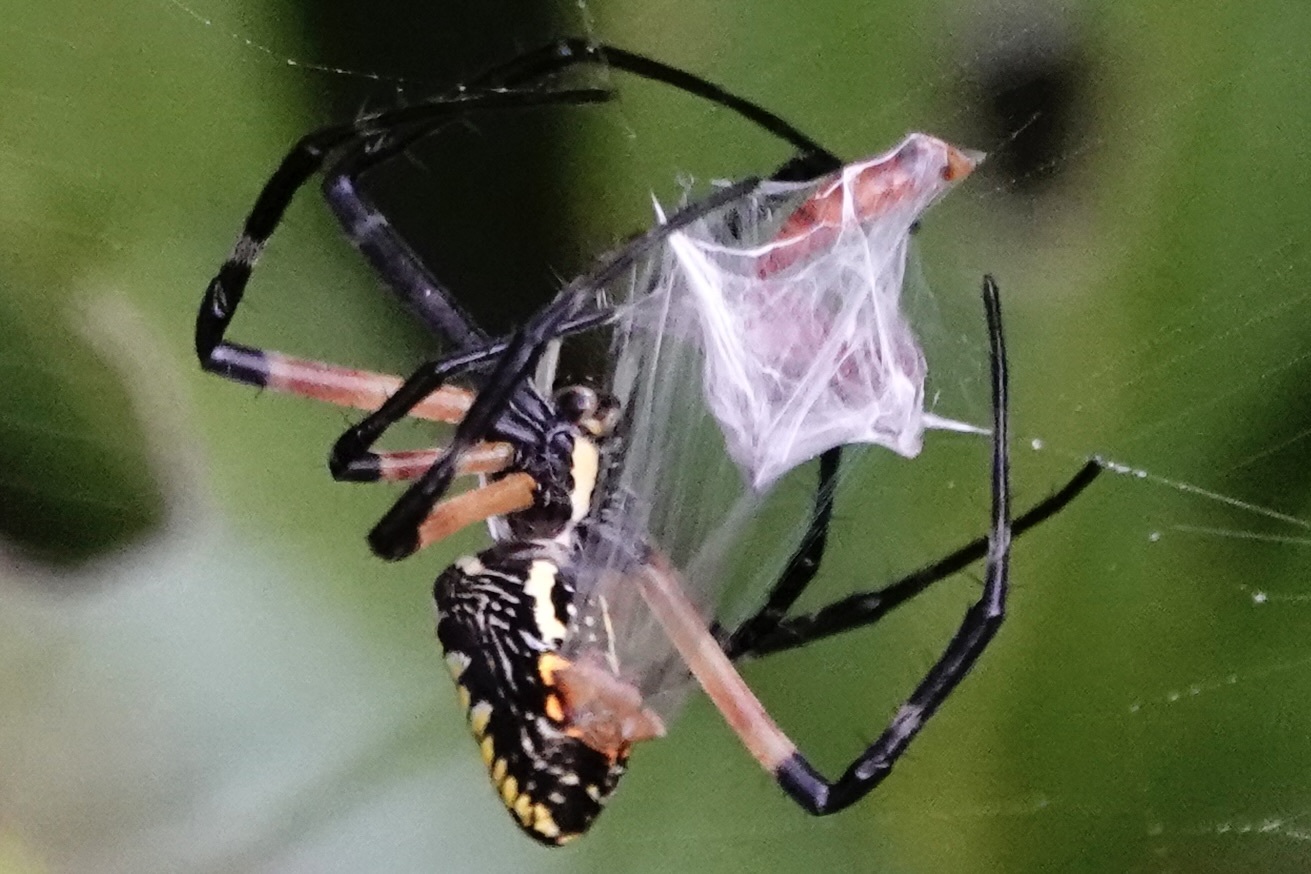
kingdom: Animalia
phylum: Arthropoda
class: Arachnida
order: Araneae
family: Araneidae
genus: Argiope
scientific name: Argiope aurantia
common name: Orb weavers
